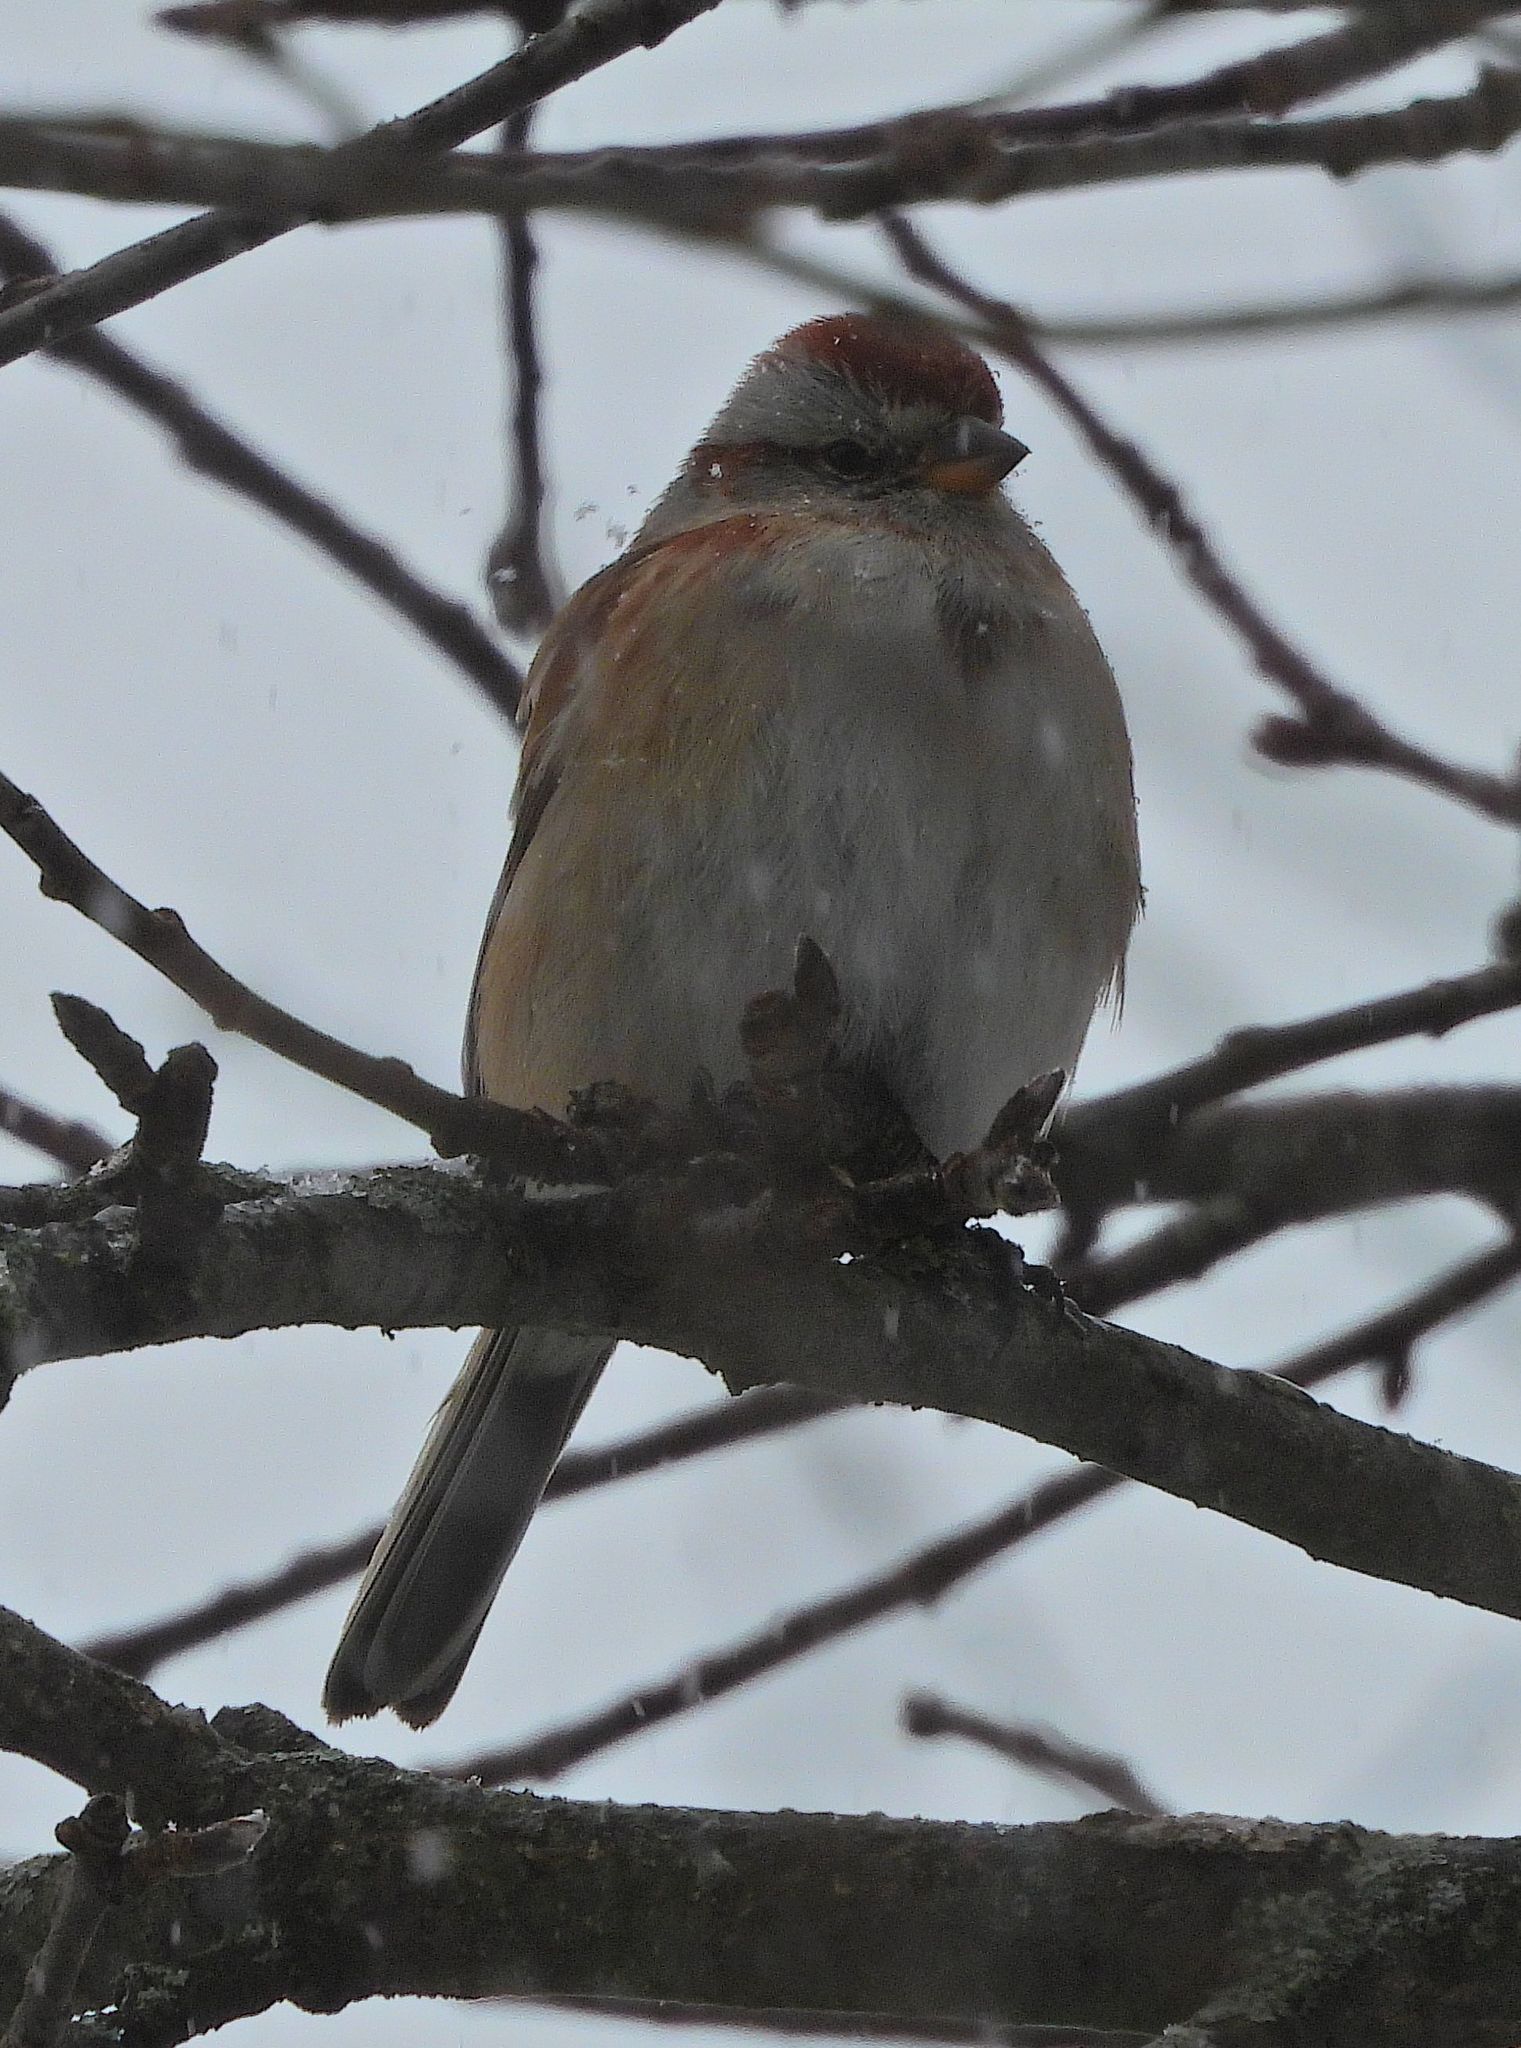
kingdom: Animalia
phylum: Chordata
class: Aves
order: Passeriformes
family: Passerellidae
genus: Spizelloides
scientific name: Spizelloides arborea
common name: American tree sparrow
